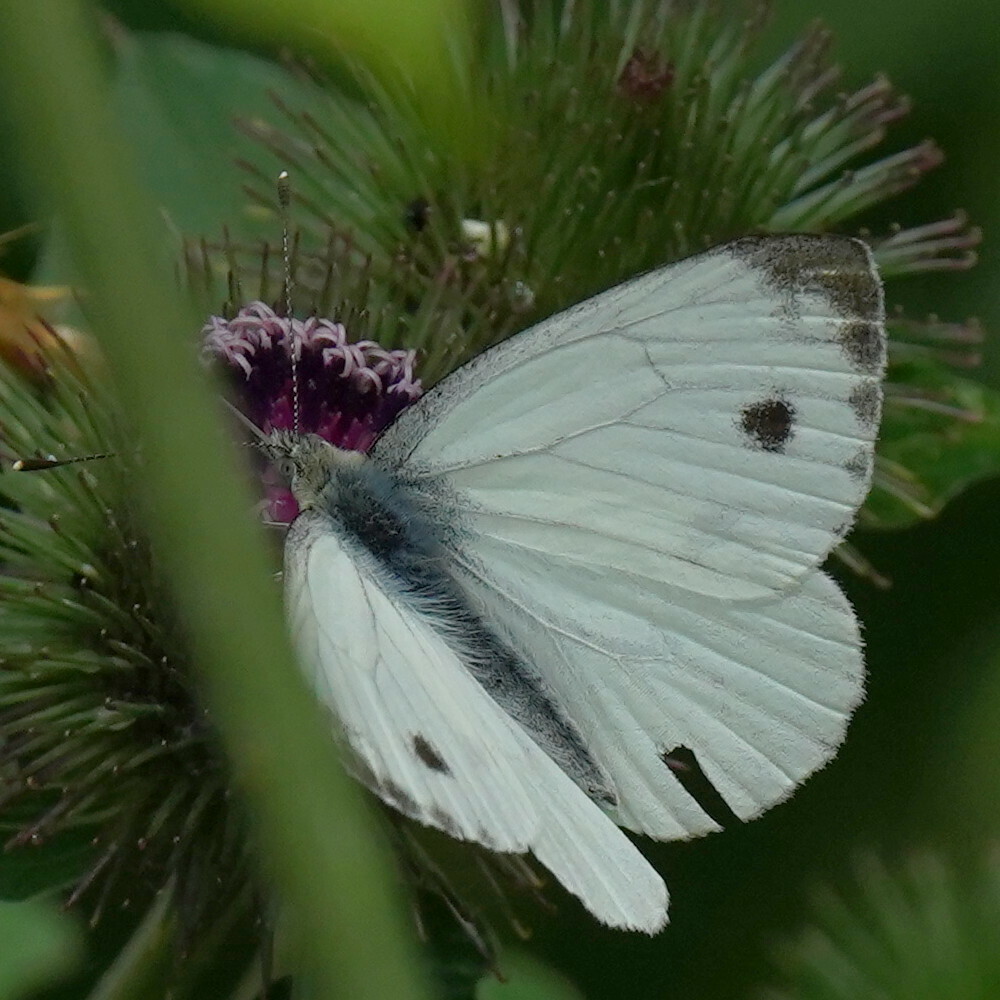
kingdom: Animalia
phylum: Arthropoda
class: Insecta
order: Lepidoptera
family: Pieridae
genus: Pieris
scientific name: Pieris napi
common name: Green-veined white
